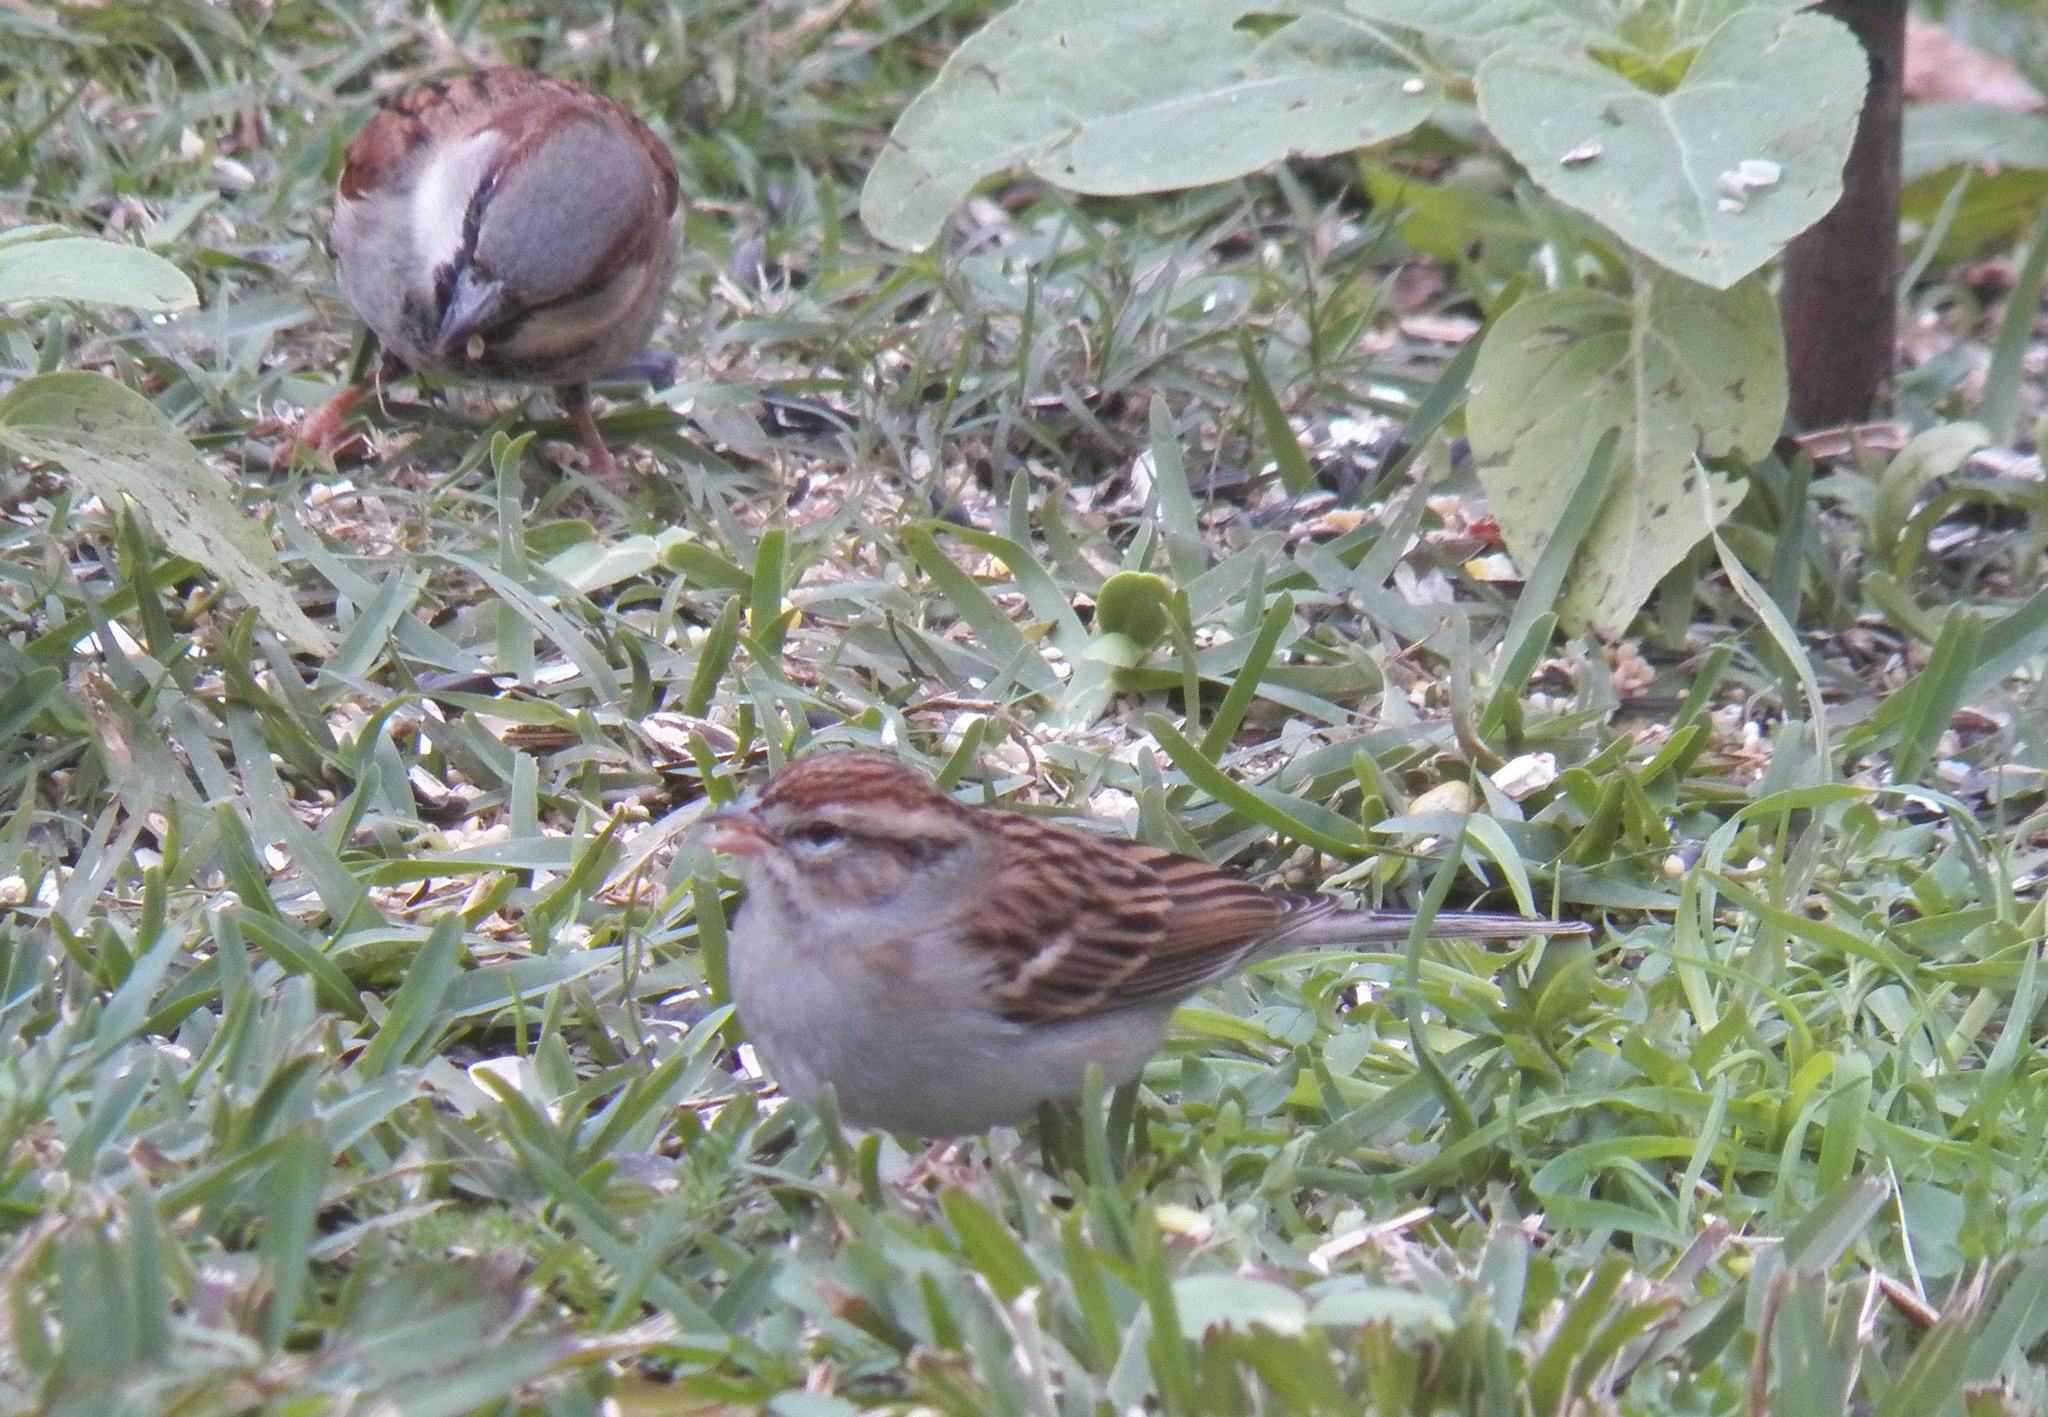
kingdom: Animalia
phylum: Chordata
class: Aves
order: Passeriformes
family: Passerellidae
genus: Spizella
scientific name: Spizella passerina
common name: Chipping sparrow
